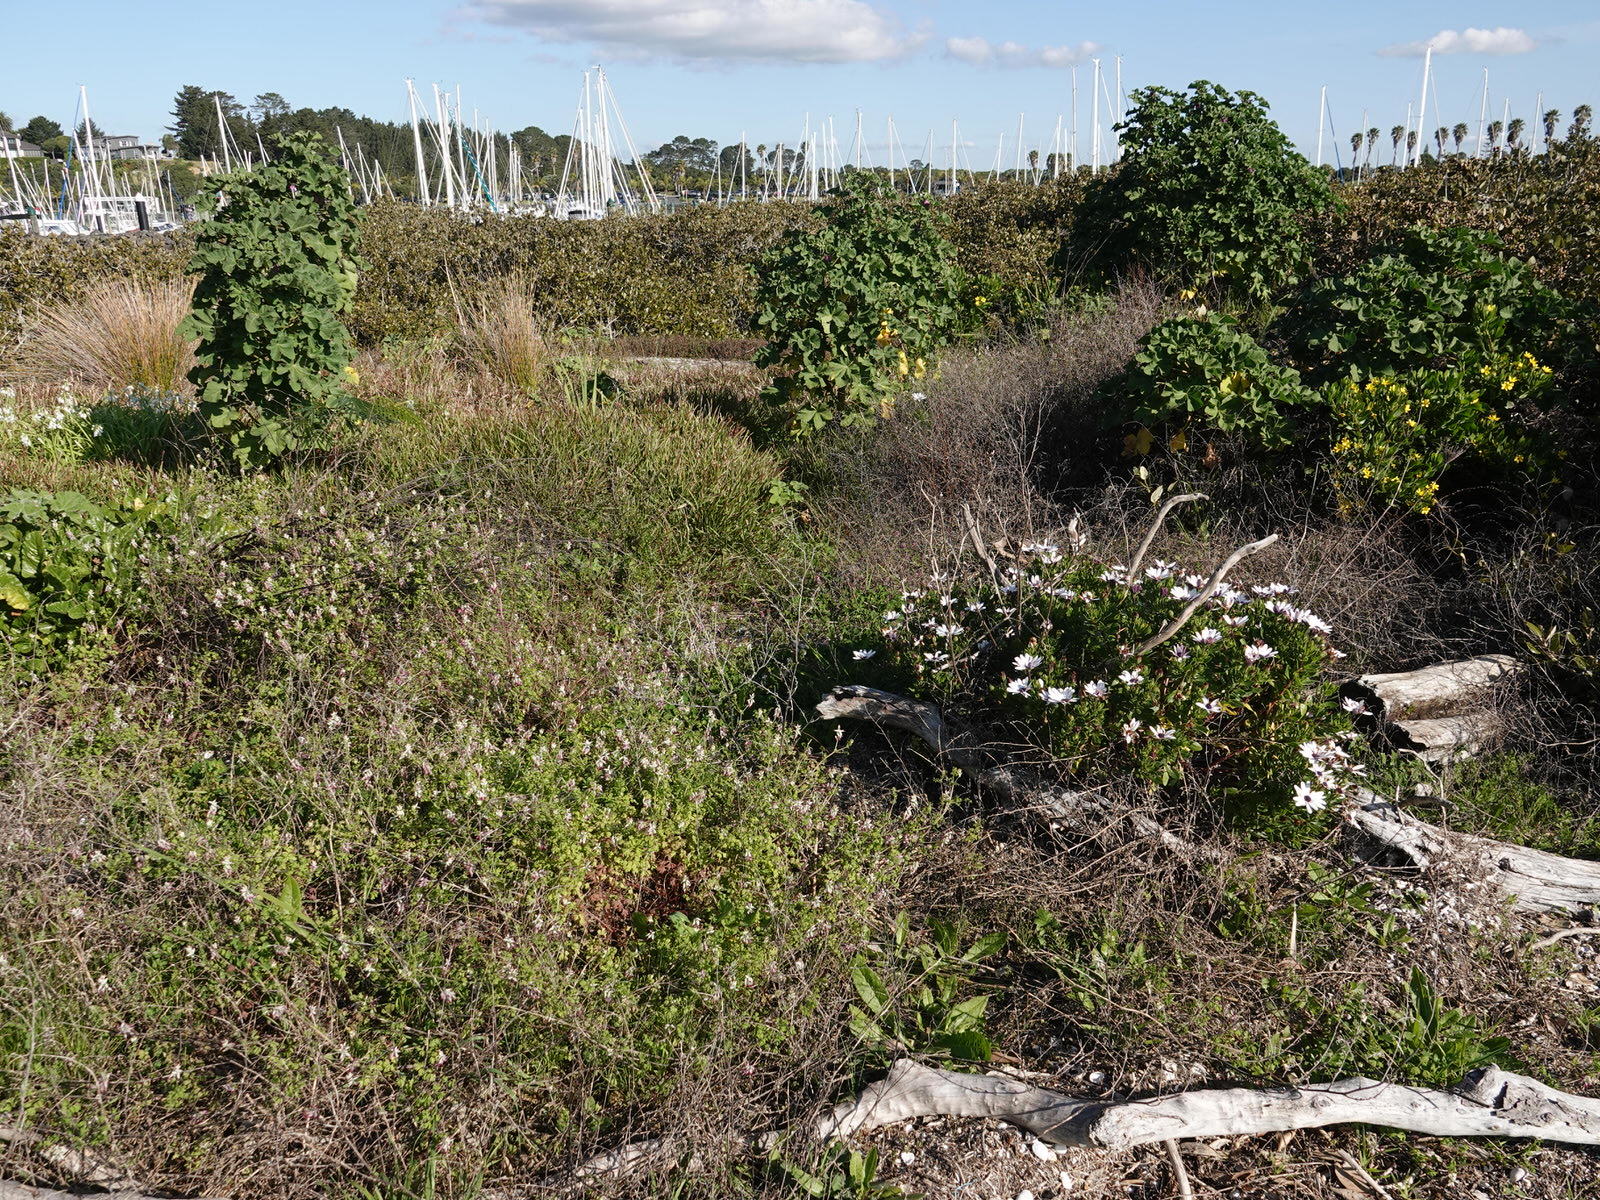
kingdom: Plantae
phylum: Tracheophyta
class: Magnoliopsida
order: Ranunculales
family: Papaveraceae
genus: Fumaria
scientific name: Fumaria capreolata
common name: White ramping-fumitory
